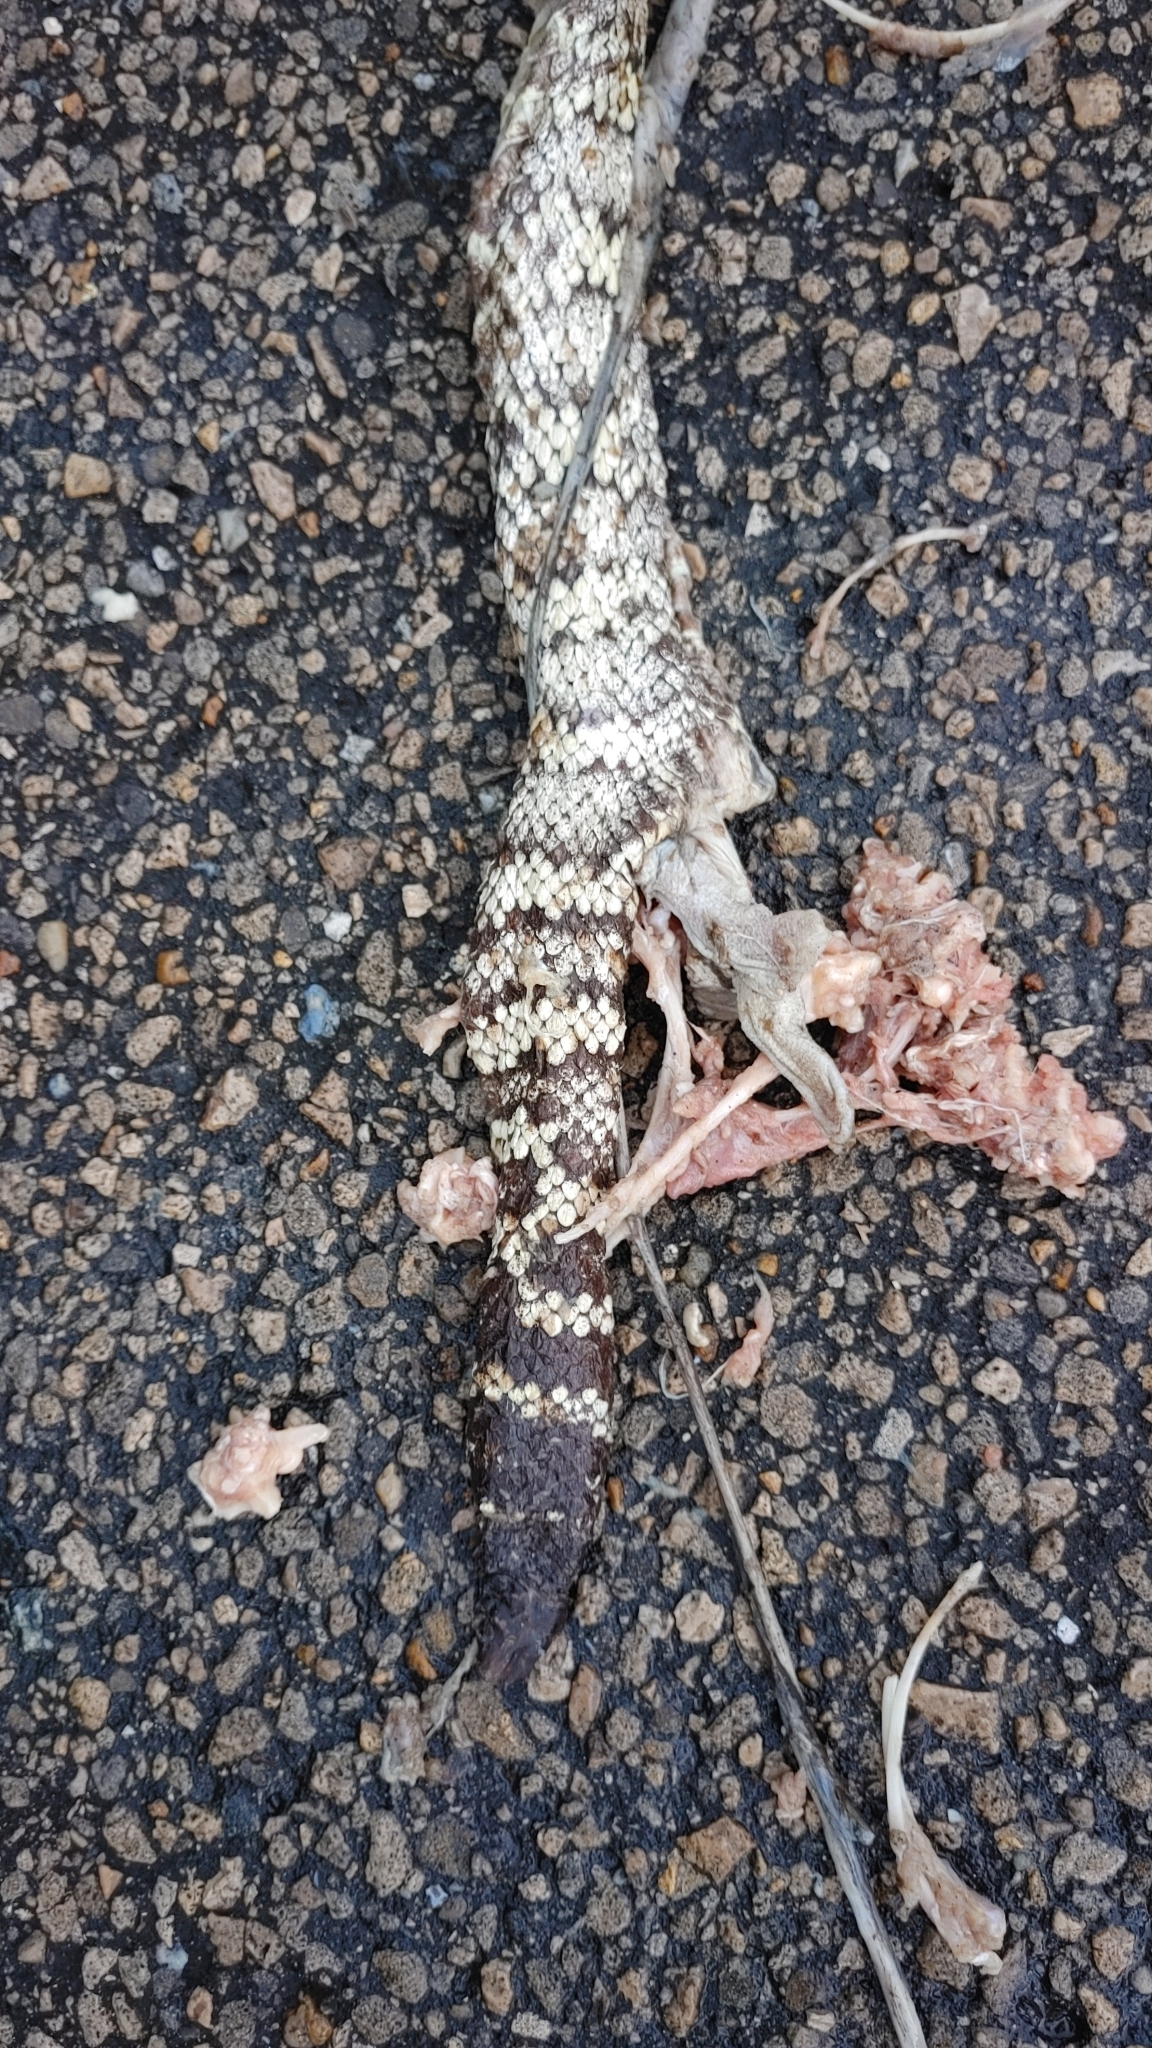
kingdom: Animalia
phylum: Chordata
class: Squamata
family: Viperidae
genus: Crotalus
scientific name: Crotalus adamanteus
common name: Eastern diamondback rattlesnake
